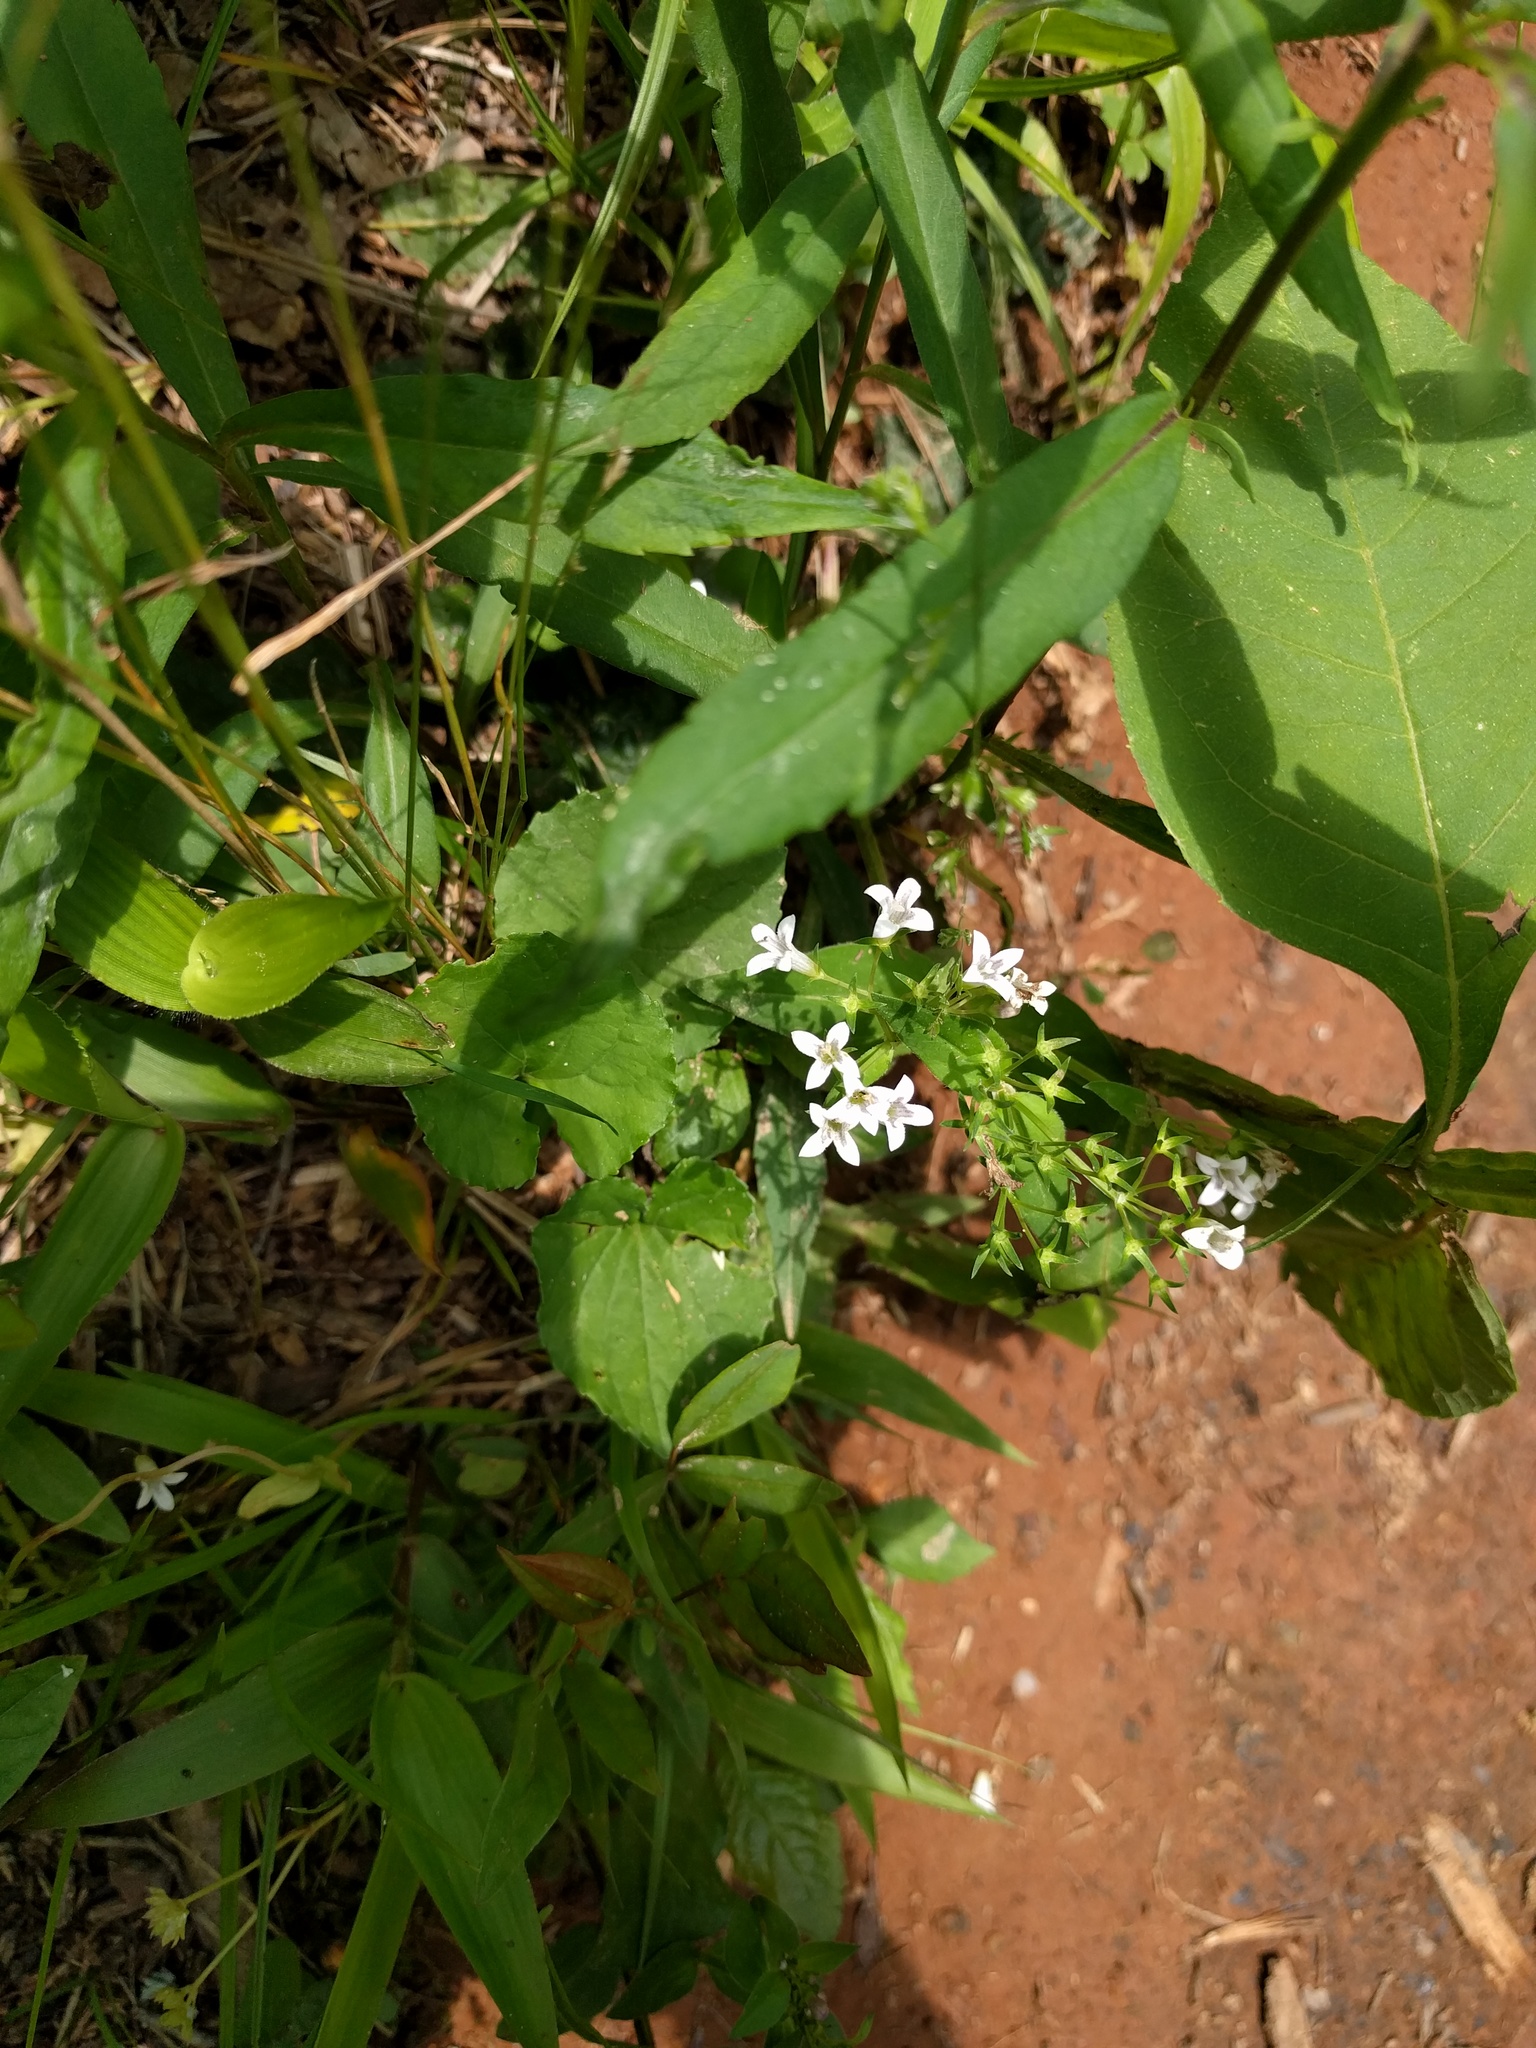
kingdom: Plantae
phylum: Tracheophyta
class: Magnoliopsida
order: Gentianales
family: Rubiaceae
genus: Houstonia
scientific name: Houstonia purpurea
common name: Summer bluet
